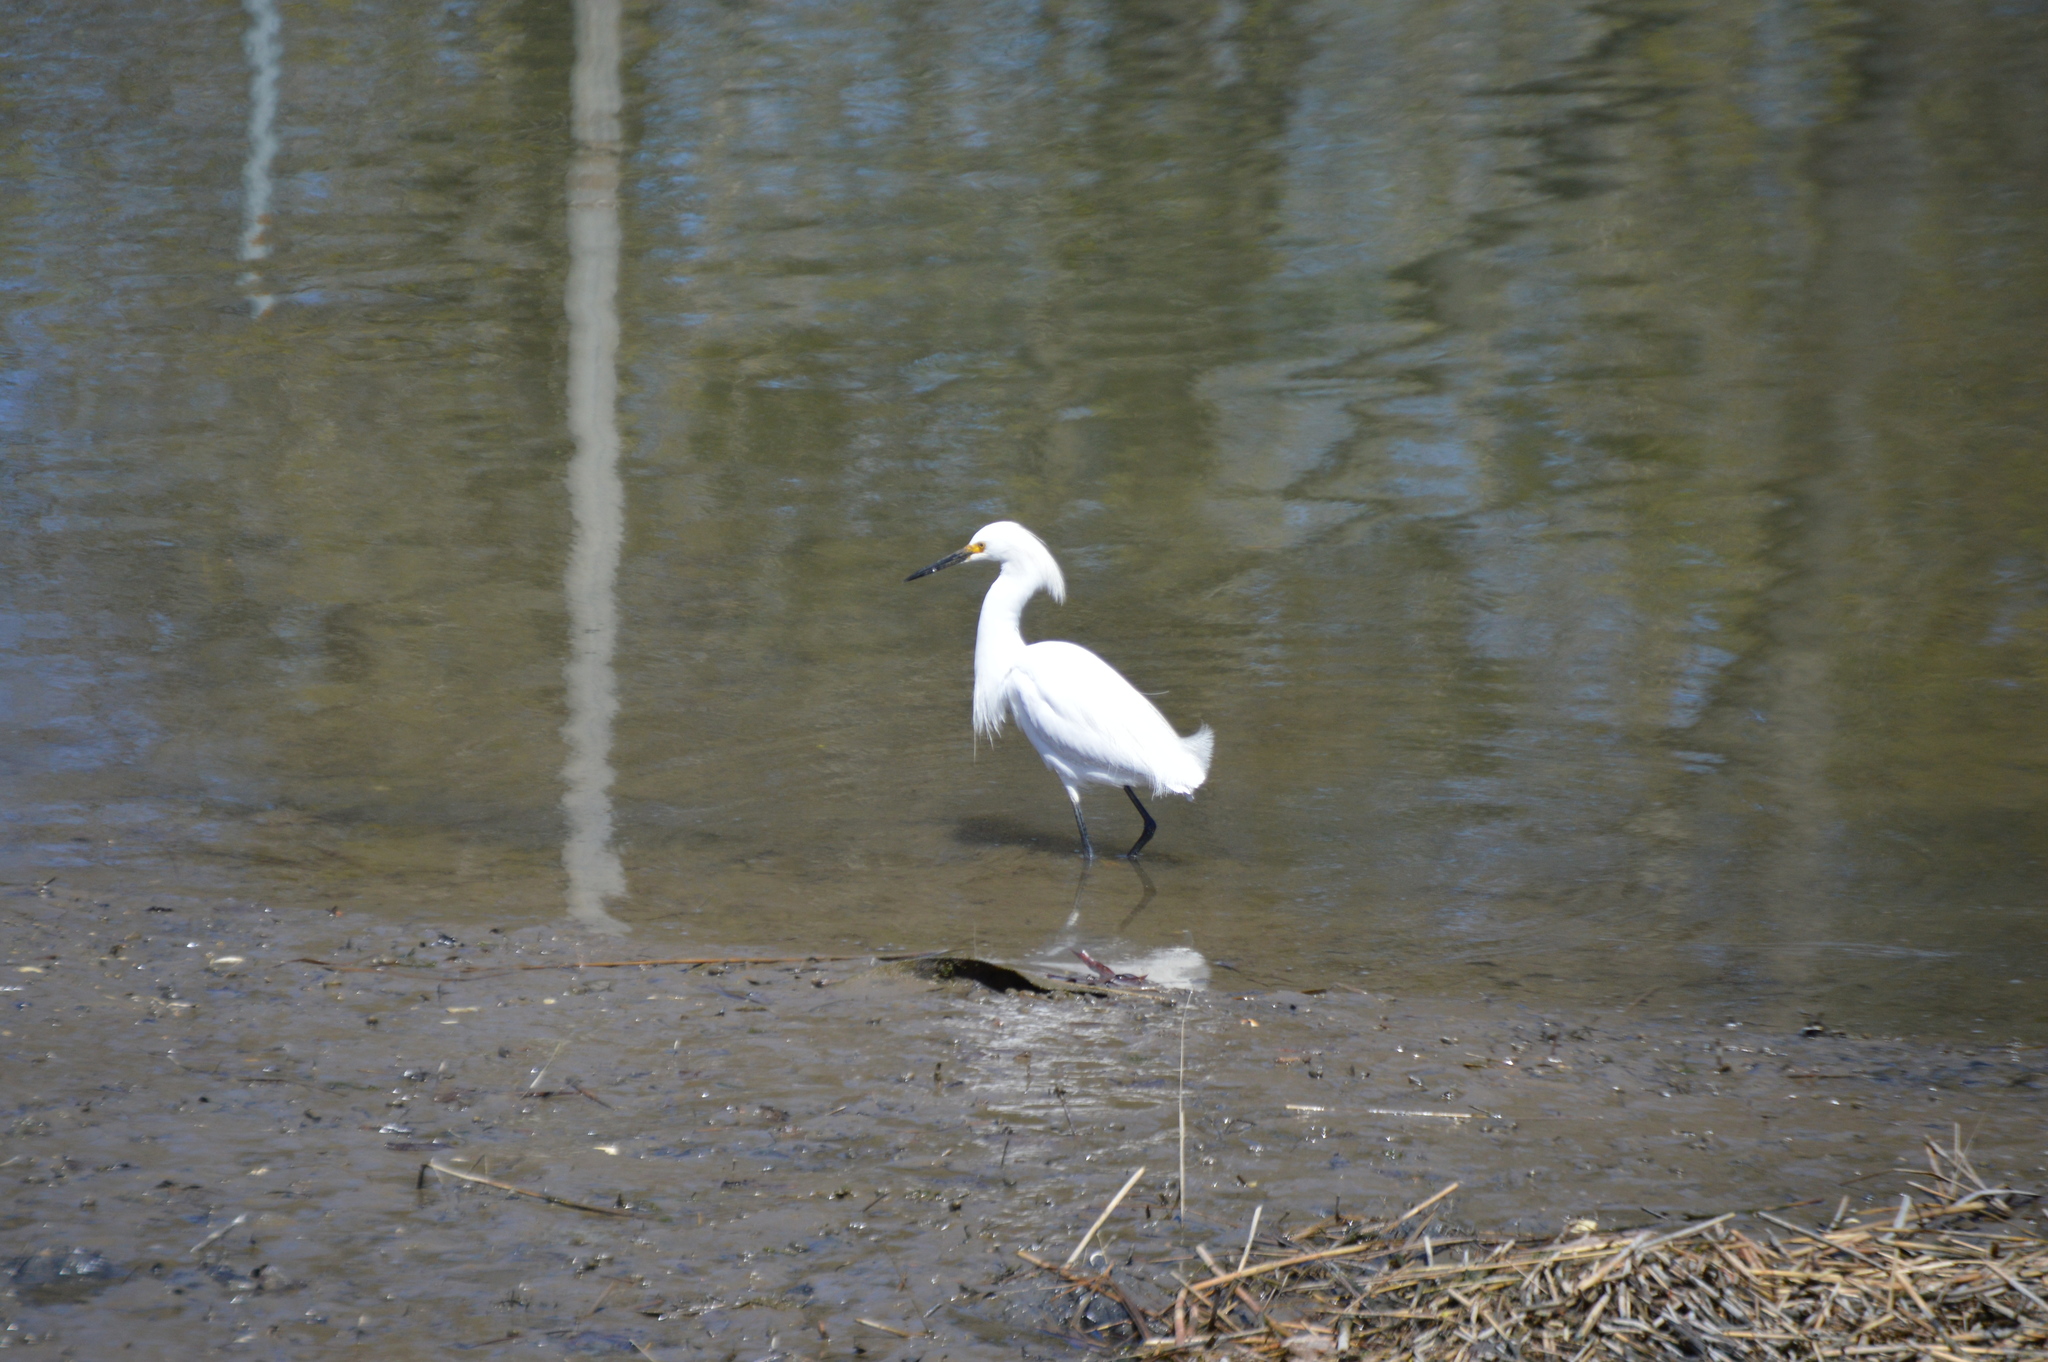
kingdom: Animalia
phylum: Chordata
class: Aves
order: Pelecaniformes
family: Ardeidae
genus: Egretta
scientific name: Egretta thula
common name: Snowy egret
